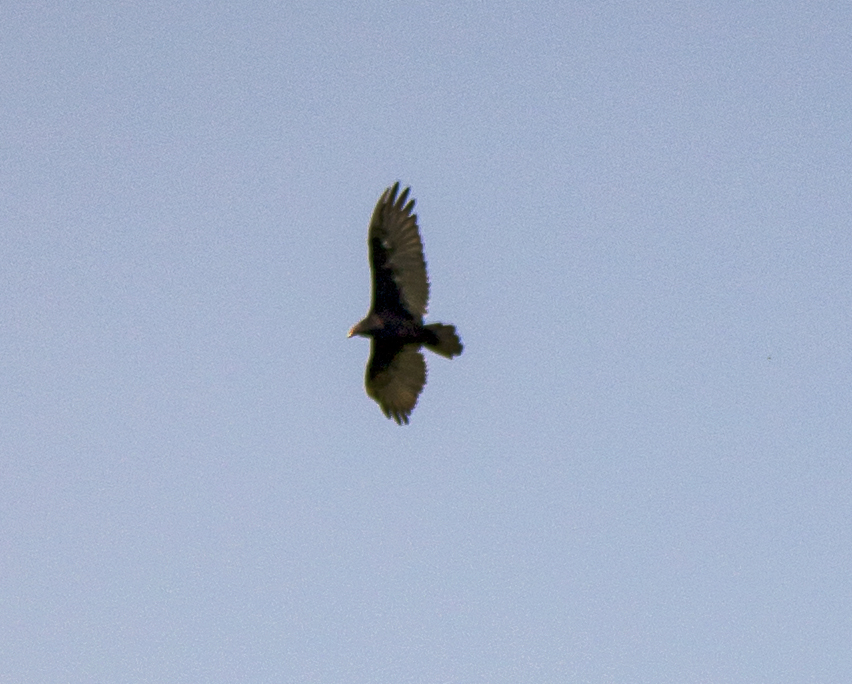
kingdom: Animalia
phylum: Chordata
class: Aves
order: Accipitriformes
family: Cathartidae
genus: Cathartes
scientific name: Cathartes aura
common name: Turkey vulture
